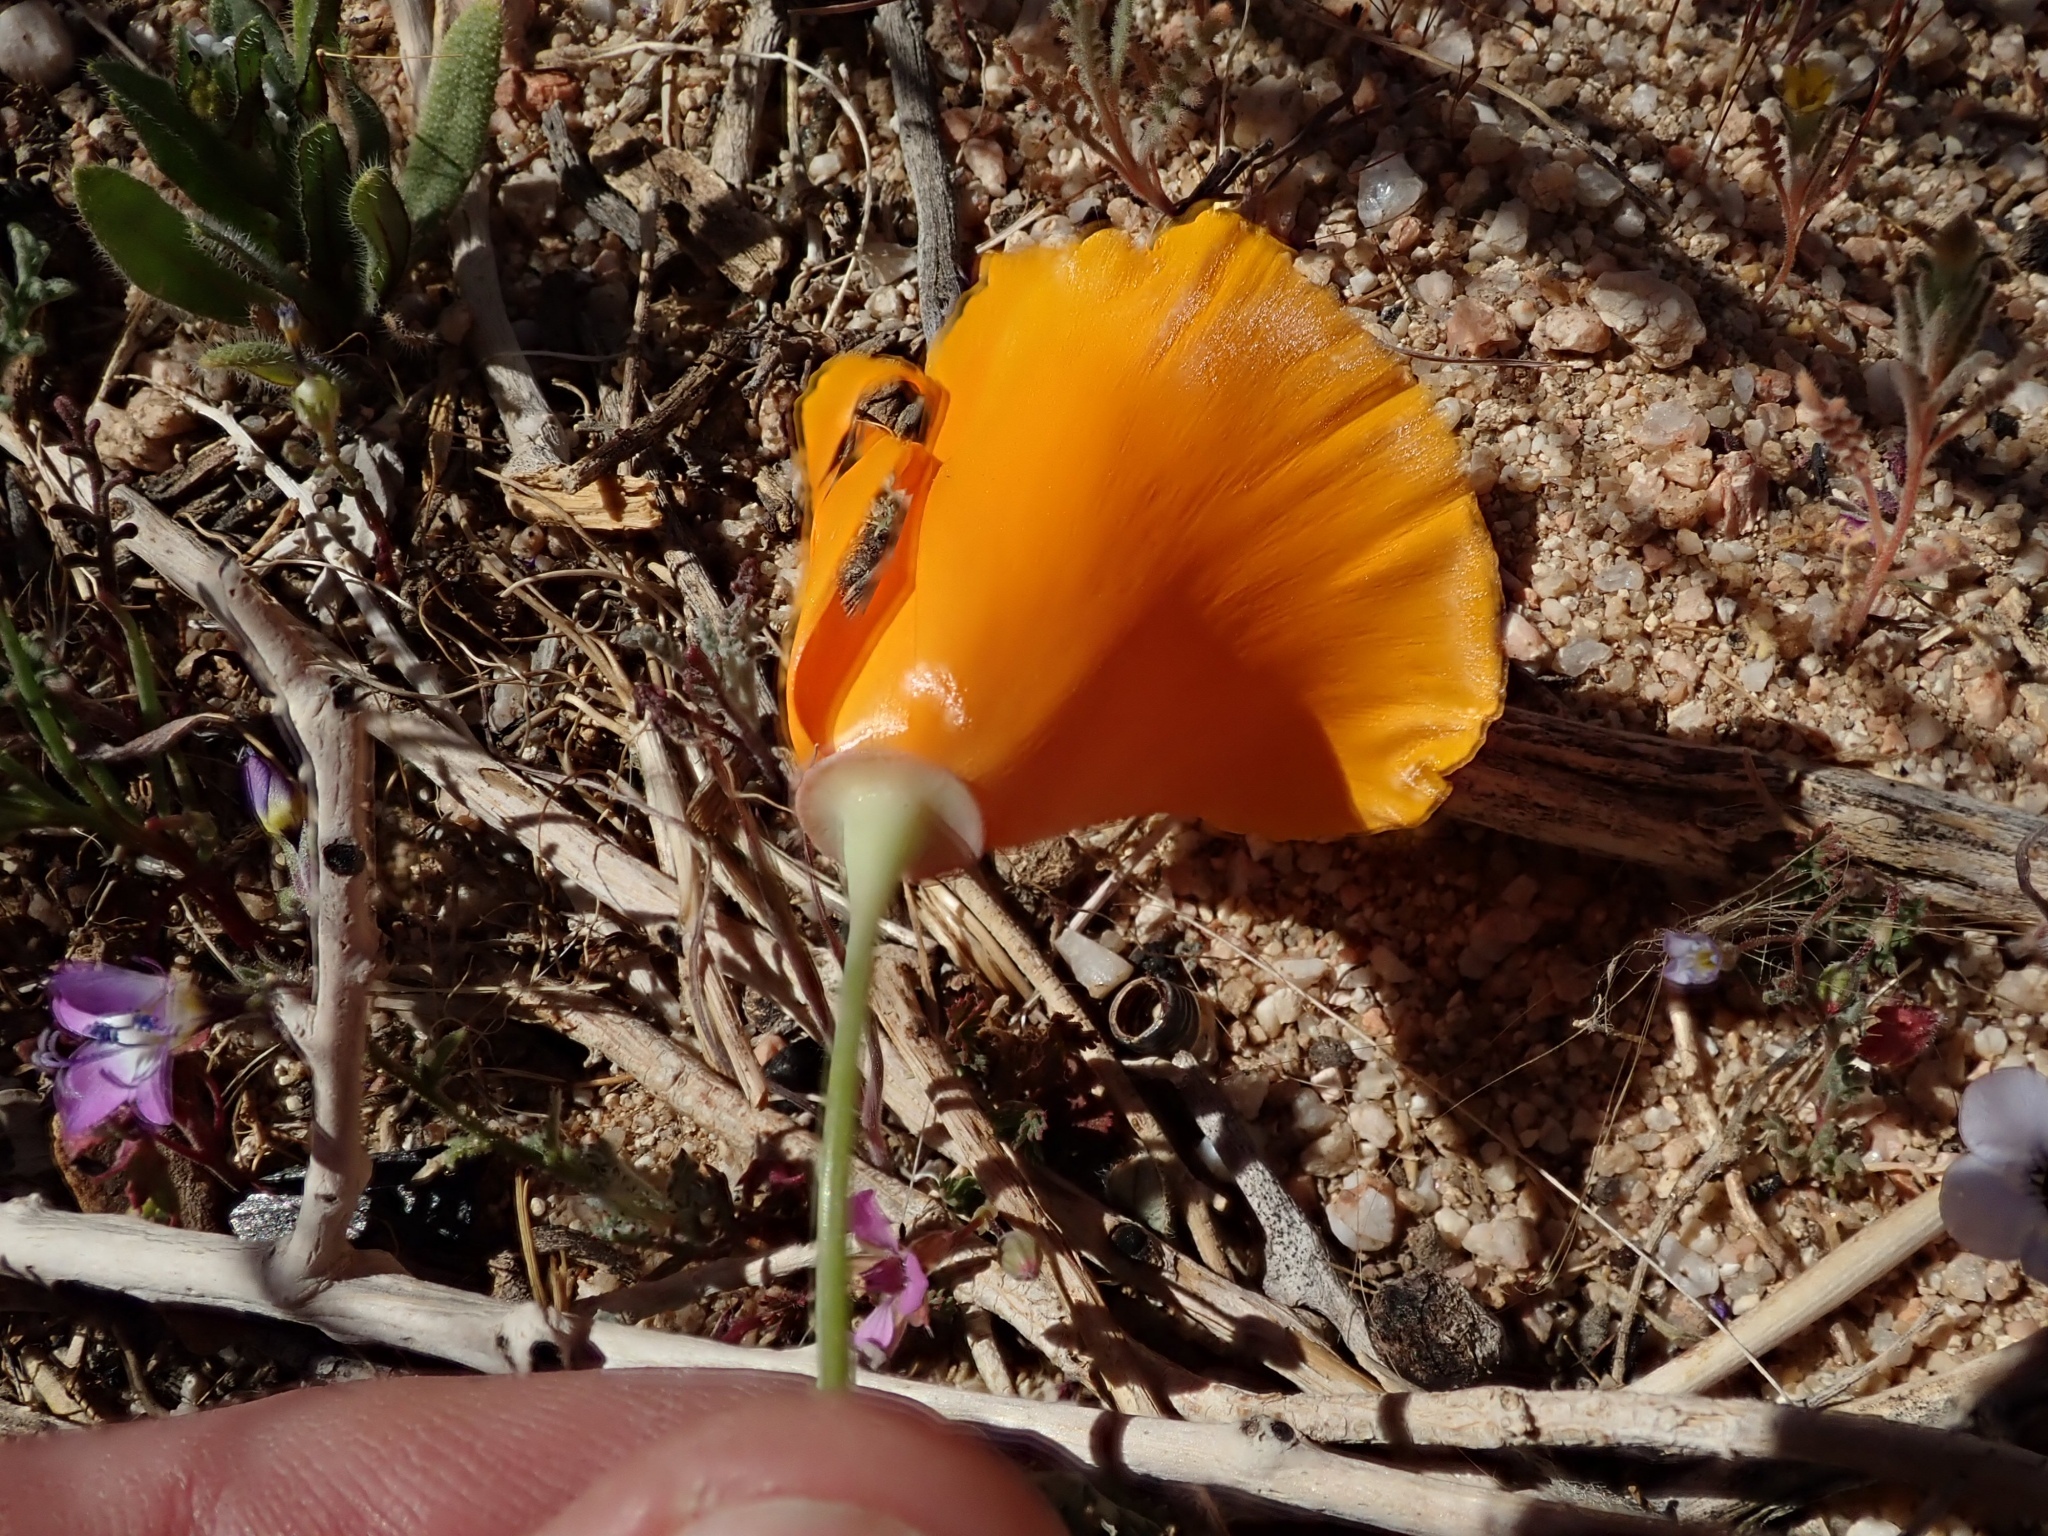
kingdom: Plantae
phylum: Tracheophyta
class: Magnoliopsida
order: Ranunculales
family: Papaveraceae
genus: Eschscholzia
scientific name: Eschscholzia californica
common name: California poppy
